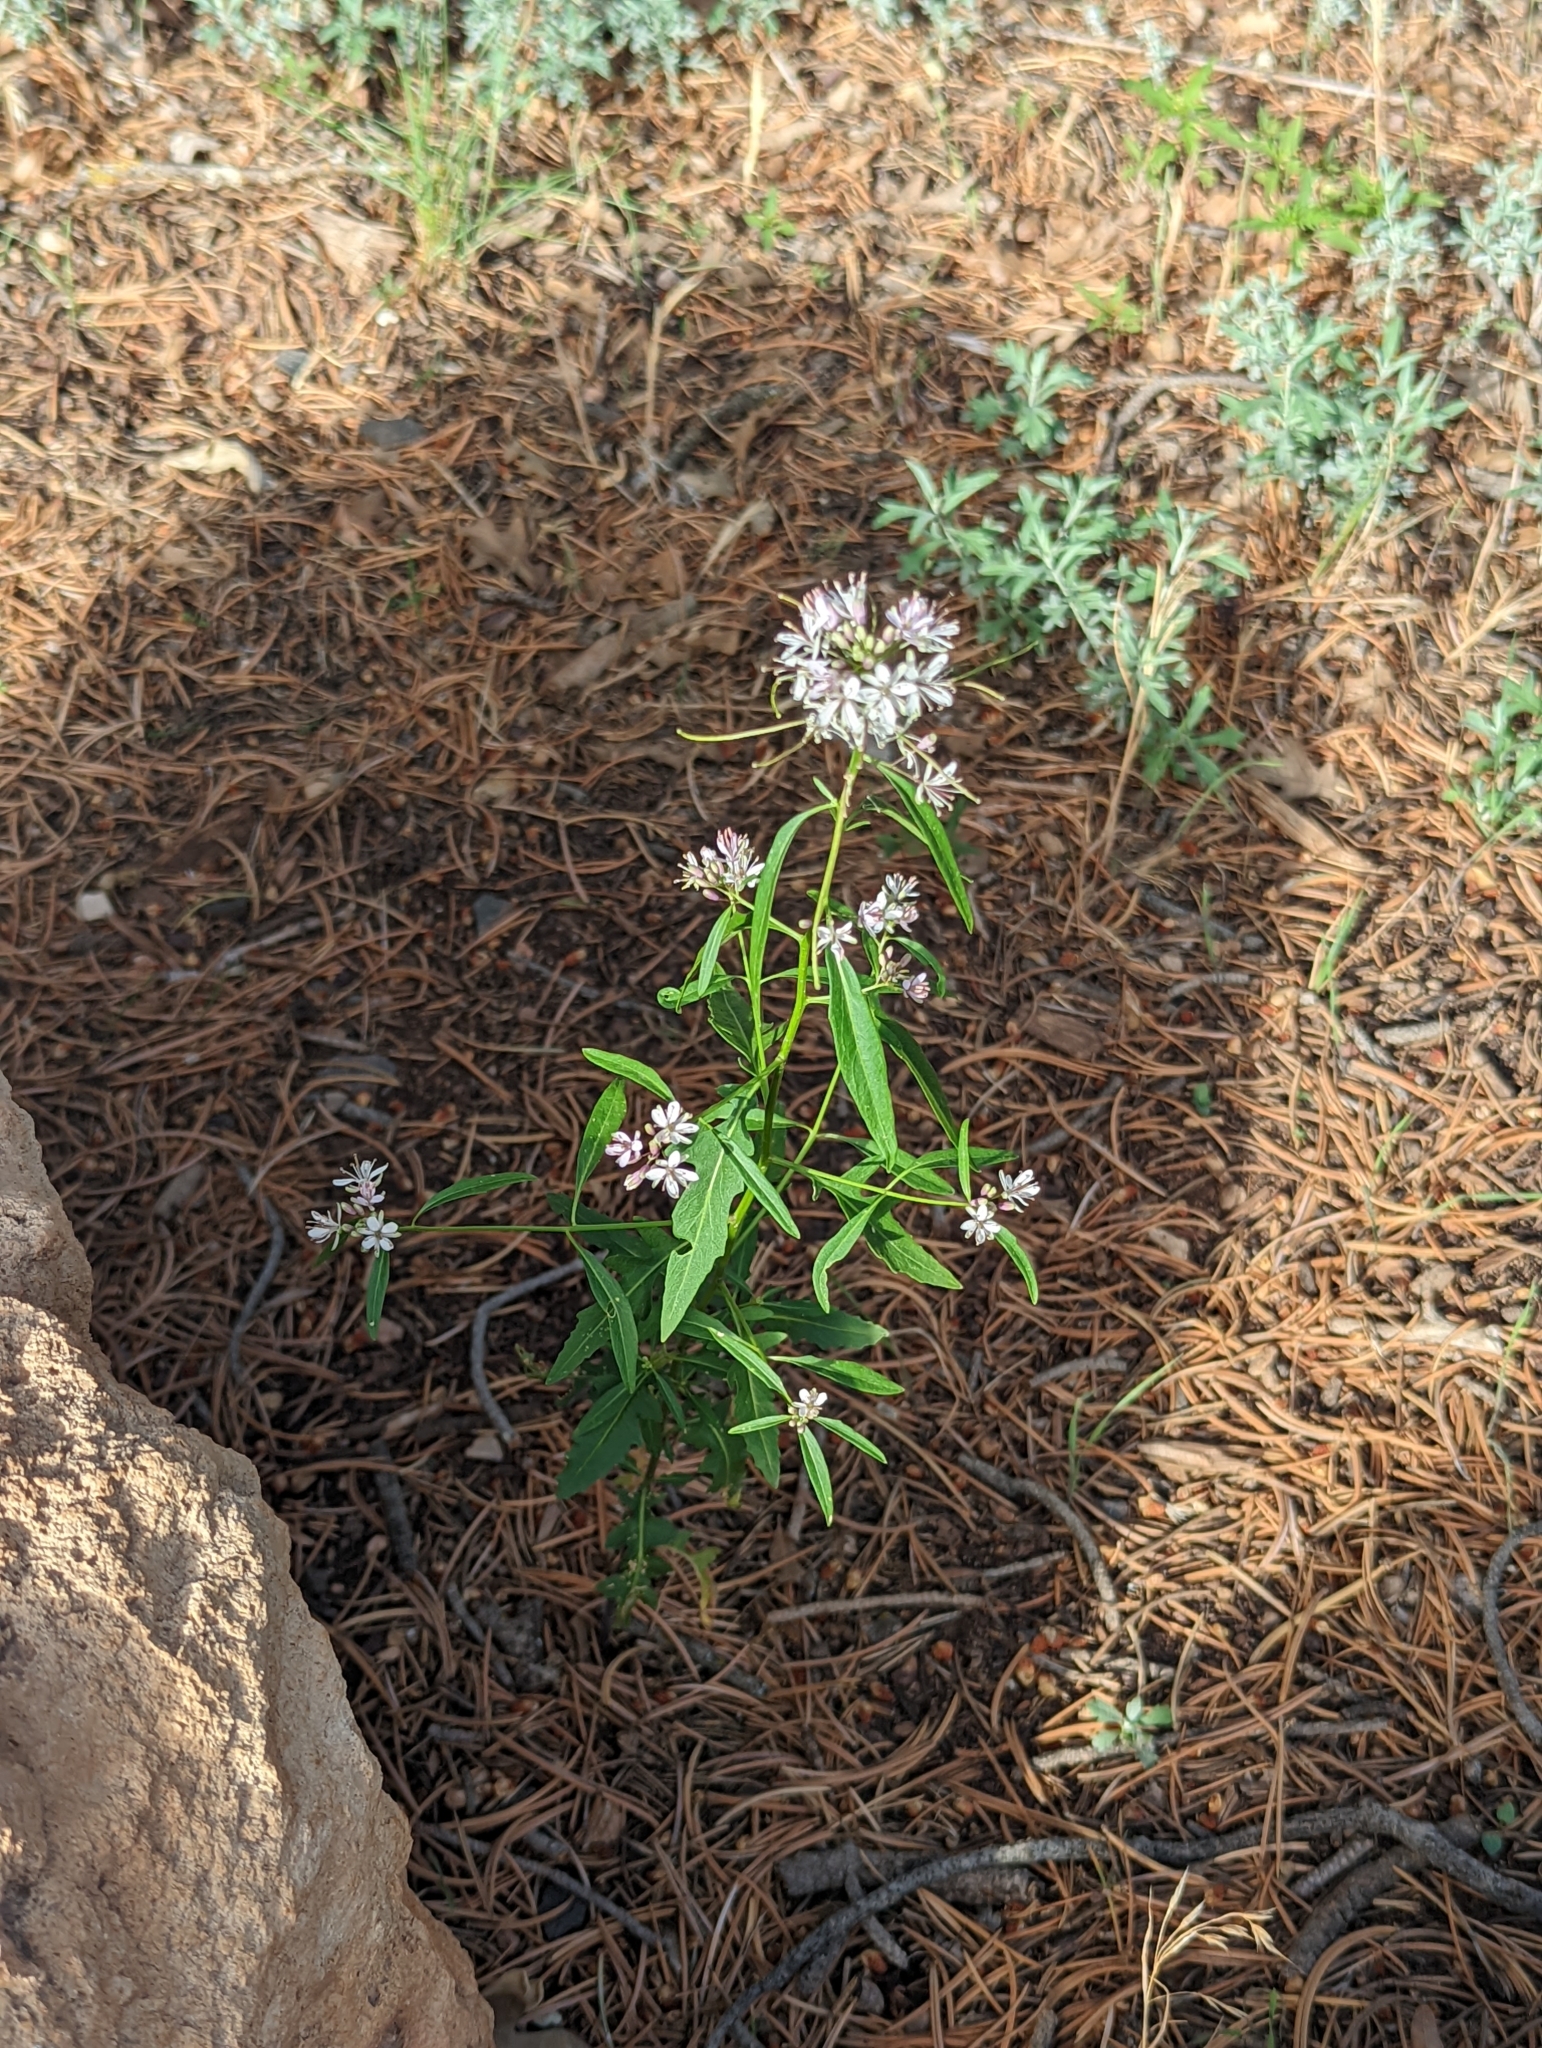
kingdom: Plantae
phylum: Tracheophyta
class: Magnoliopsida
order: Brassicales
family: Brassicaceae
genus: Thelypodium
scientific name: Thelypodium wrightii
